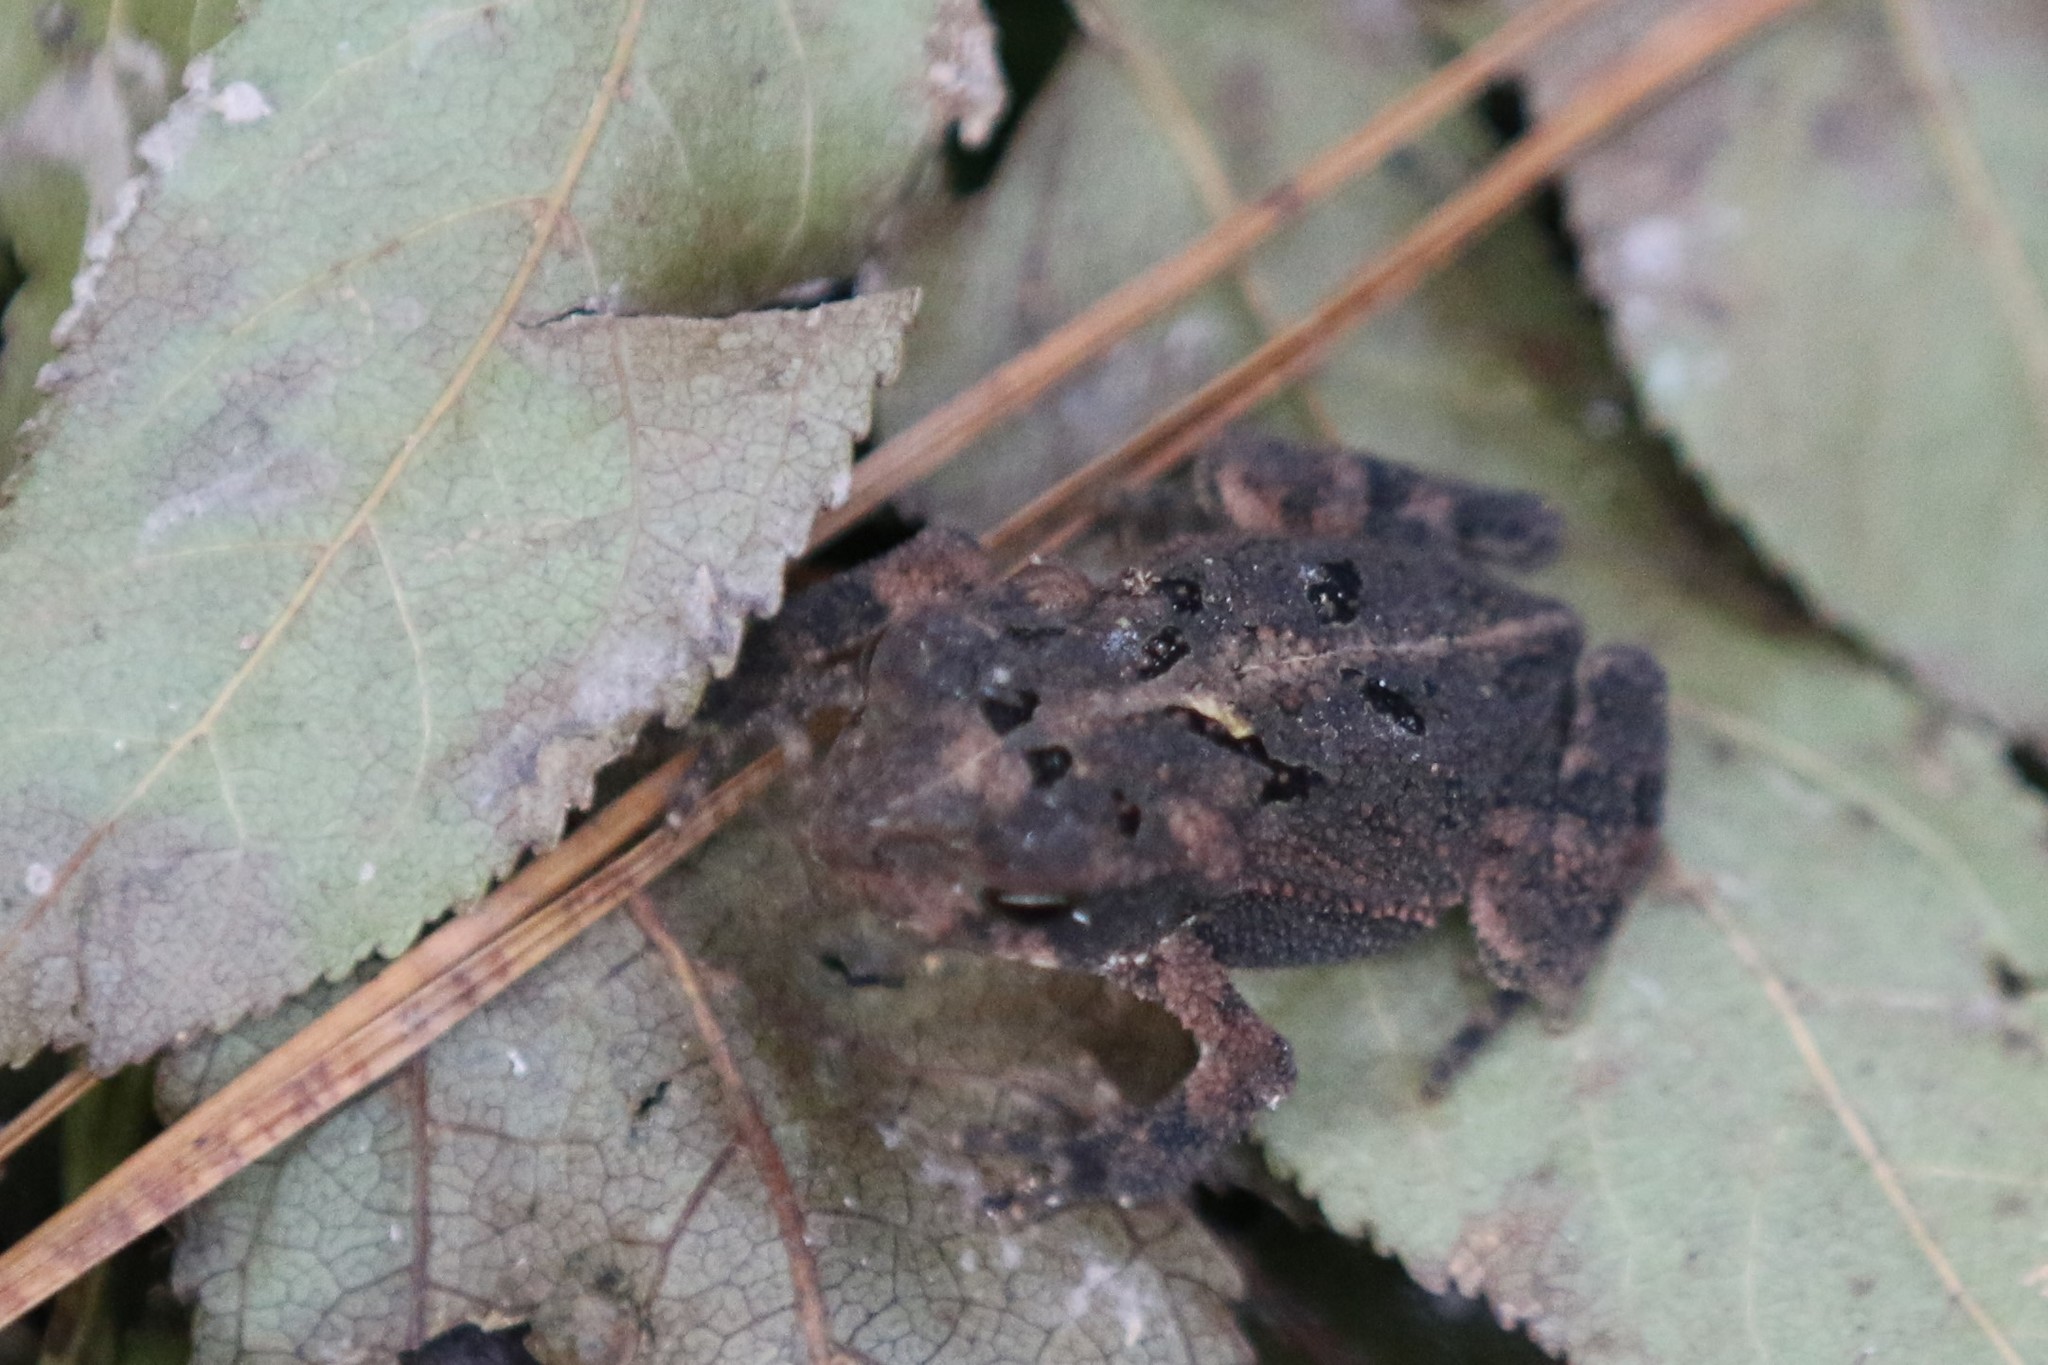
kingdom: Animalia
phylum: Chordata
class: Amphibia
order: Anura
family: Bufonidae
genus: Incilius
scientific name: Incilius nebulifer
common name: Gulf coast toad
